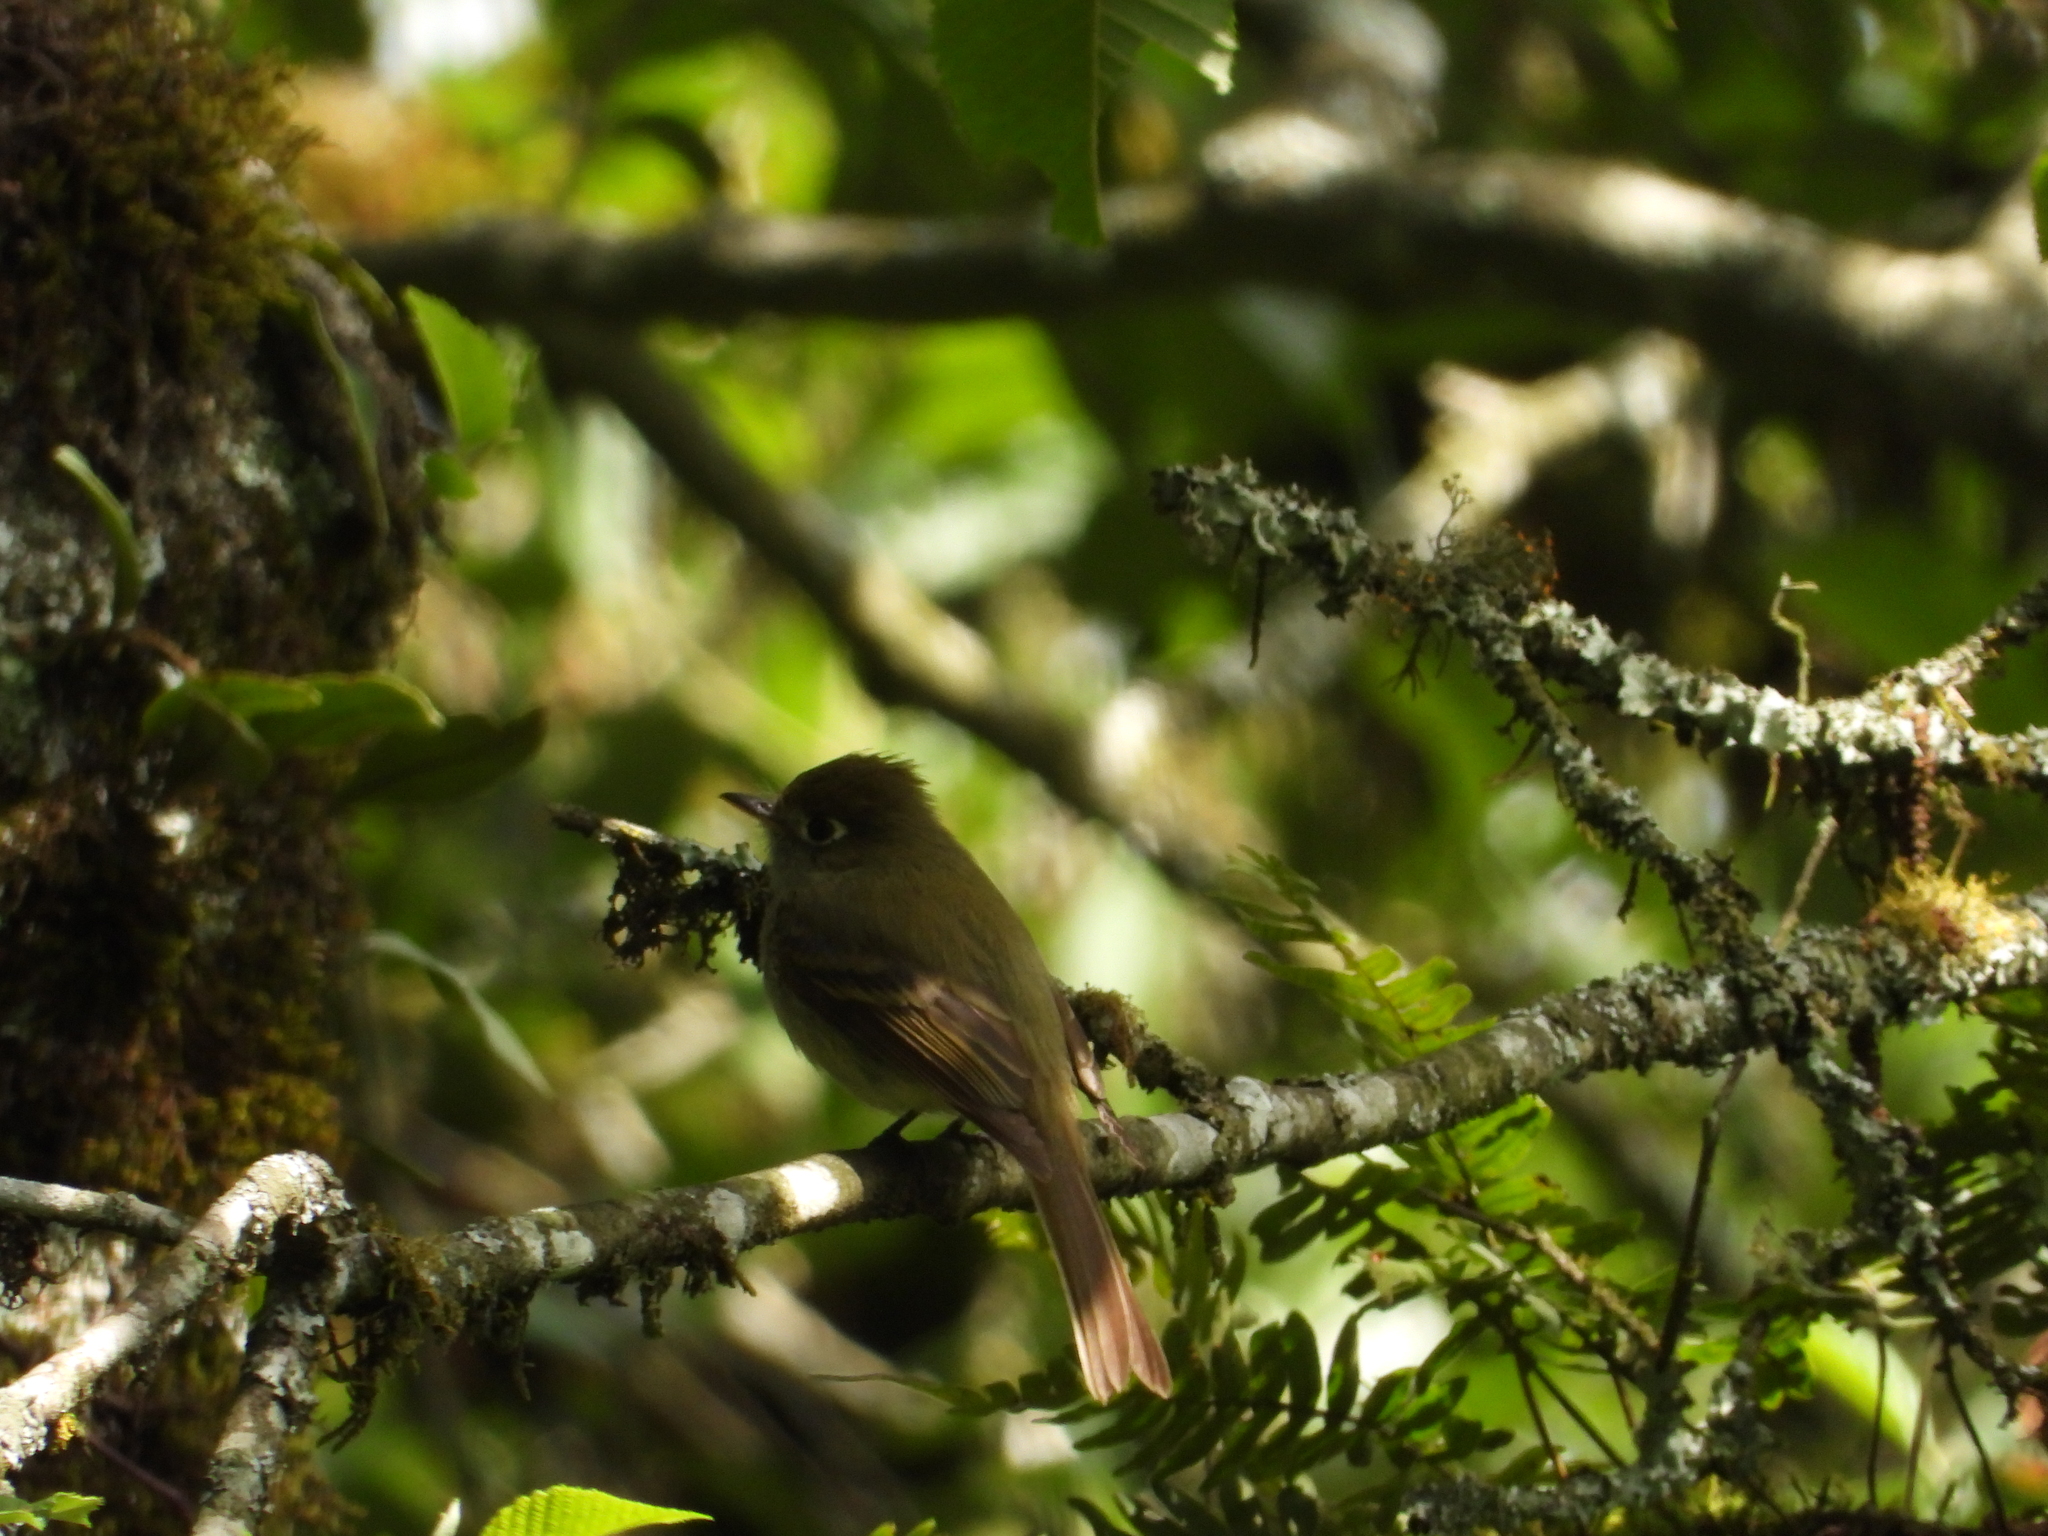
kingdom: Animalia
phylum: Chordata
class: Aves
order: Passeriformes
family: Tyrannidae
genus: Empidonax
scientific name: Empidonax difficilis
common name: Pacific-slope flycatcher
